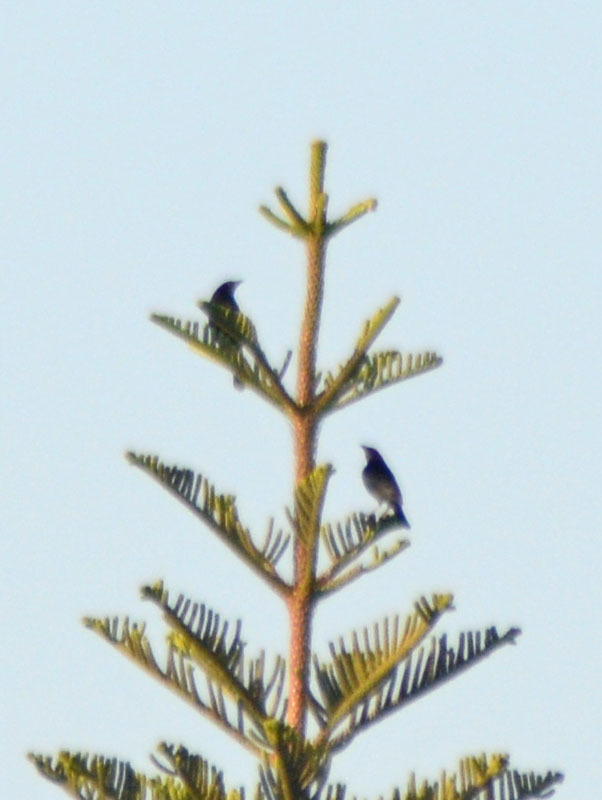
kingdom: Animalia
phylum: Chordata
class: Aves
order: Passeriformes
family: Icteridae
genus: Molothrus
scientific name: Molothrus aeneus
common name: Bronzed cowbird
